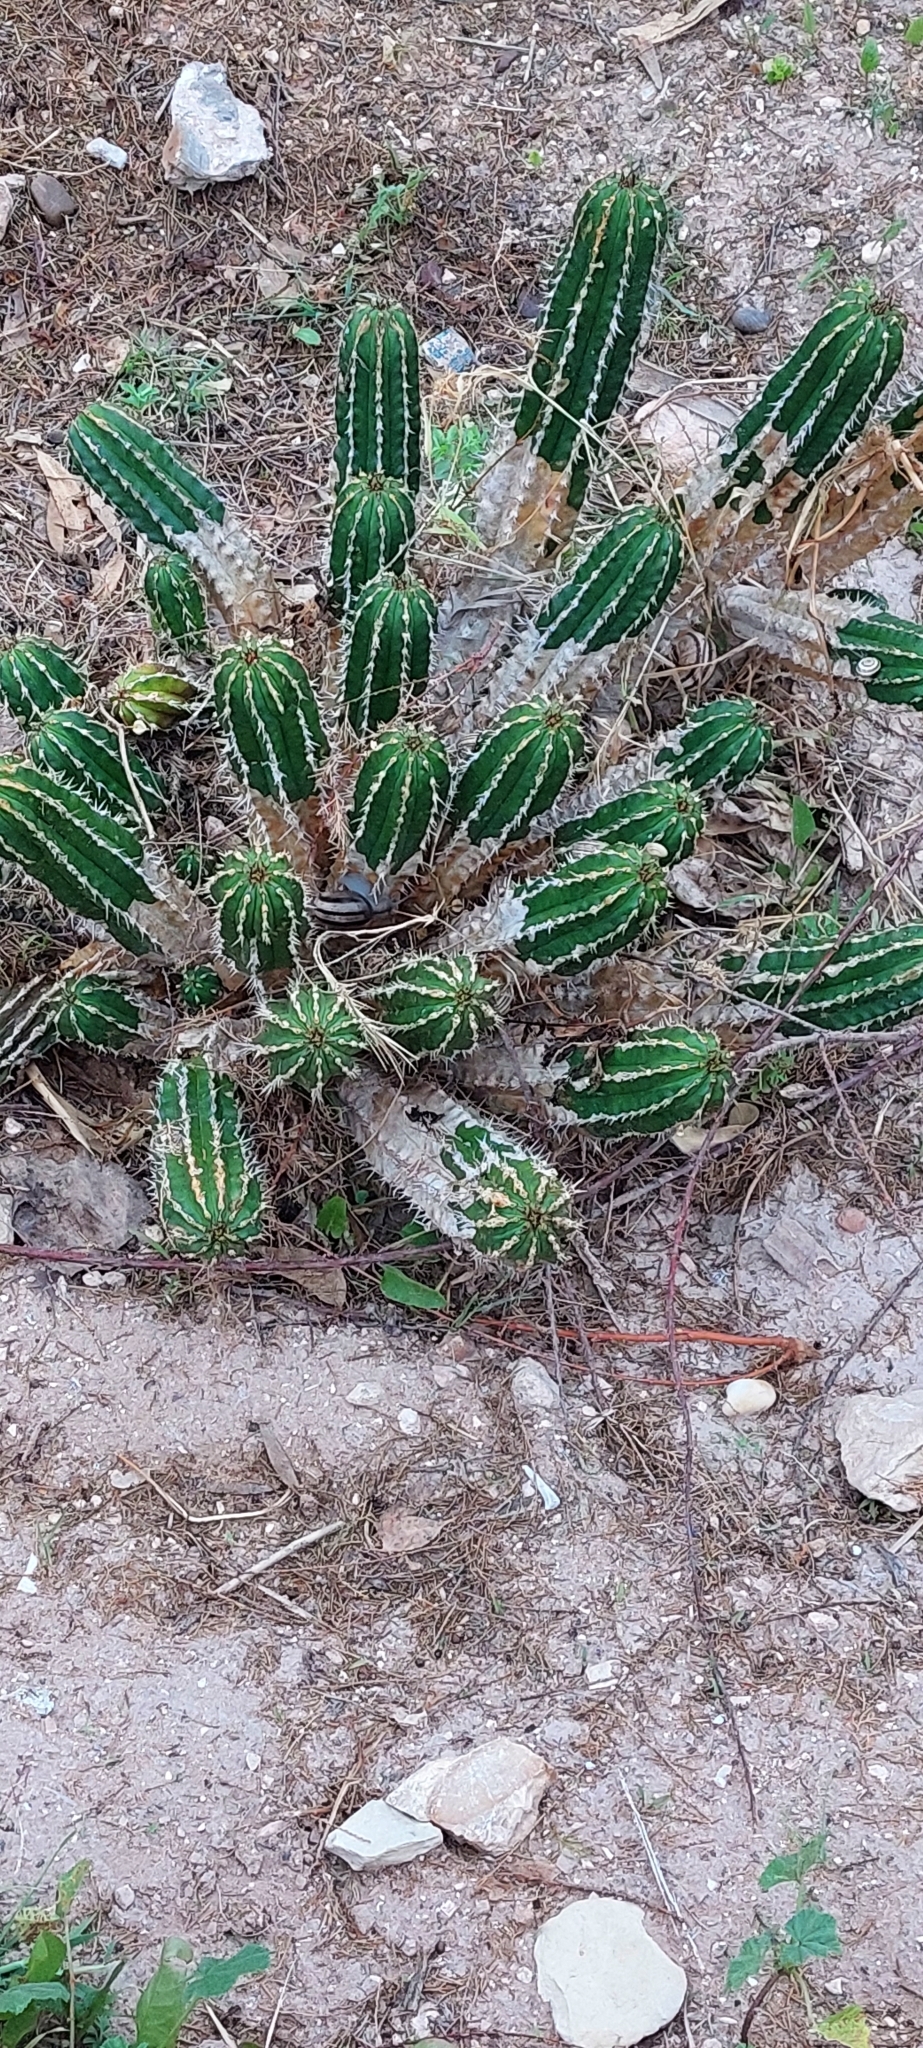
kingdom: Plantae
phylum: Tracheophyta
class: Magnoliopsida
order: Malpighiales
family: Euphorbiaceae
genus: Euphorbia
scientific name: Euphorbia officinarum
